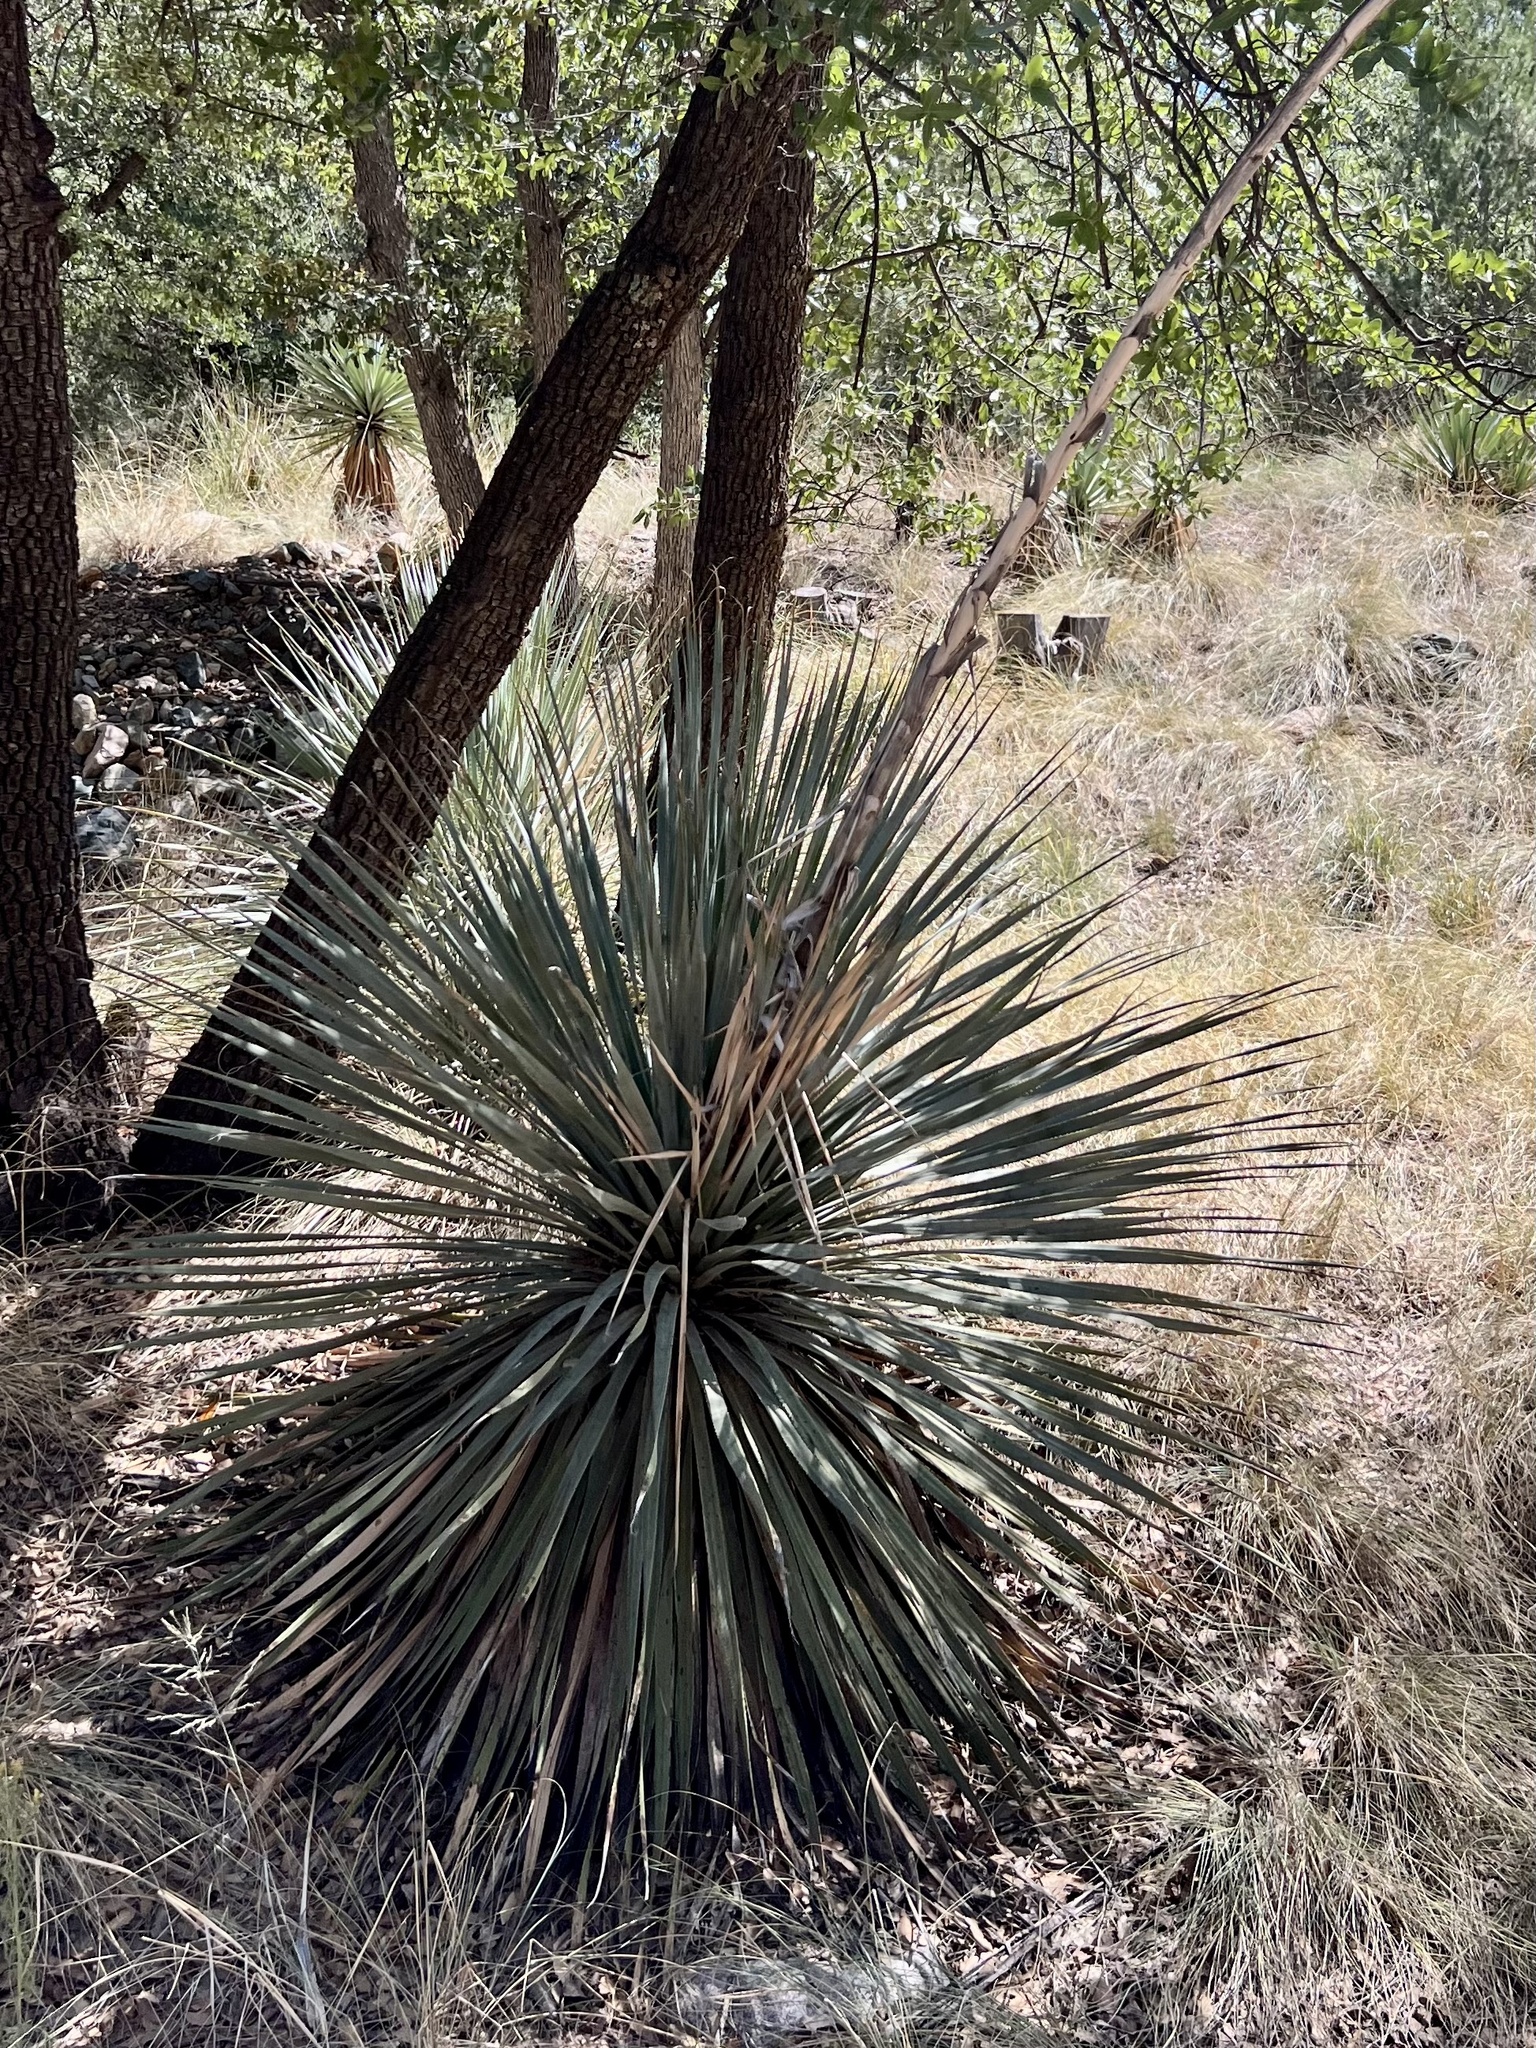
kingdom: Plantae
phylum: Tracheophyta
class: Liliopsida
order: Asparagales
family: Asparagaceae
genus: Dasylirion
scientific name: Dasylirion wheeleri
